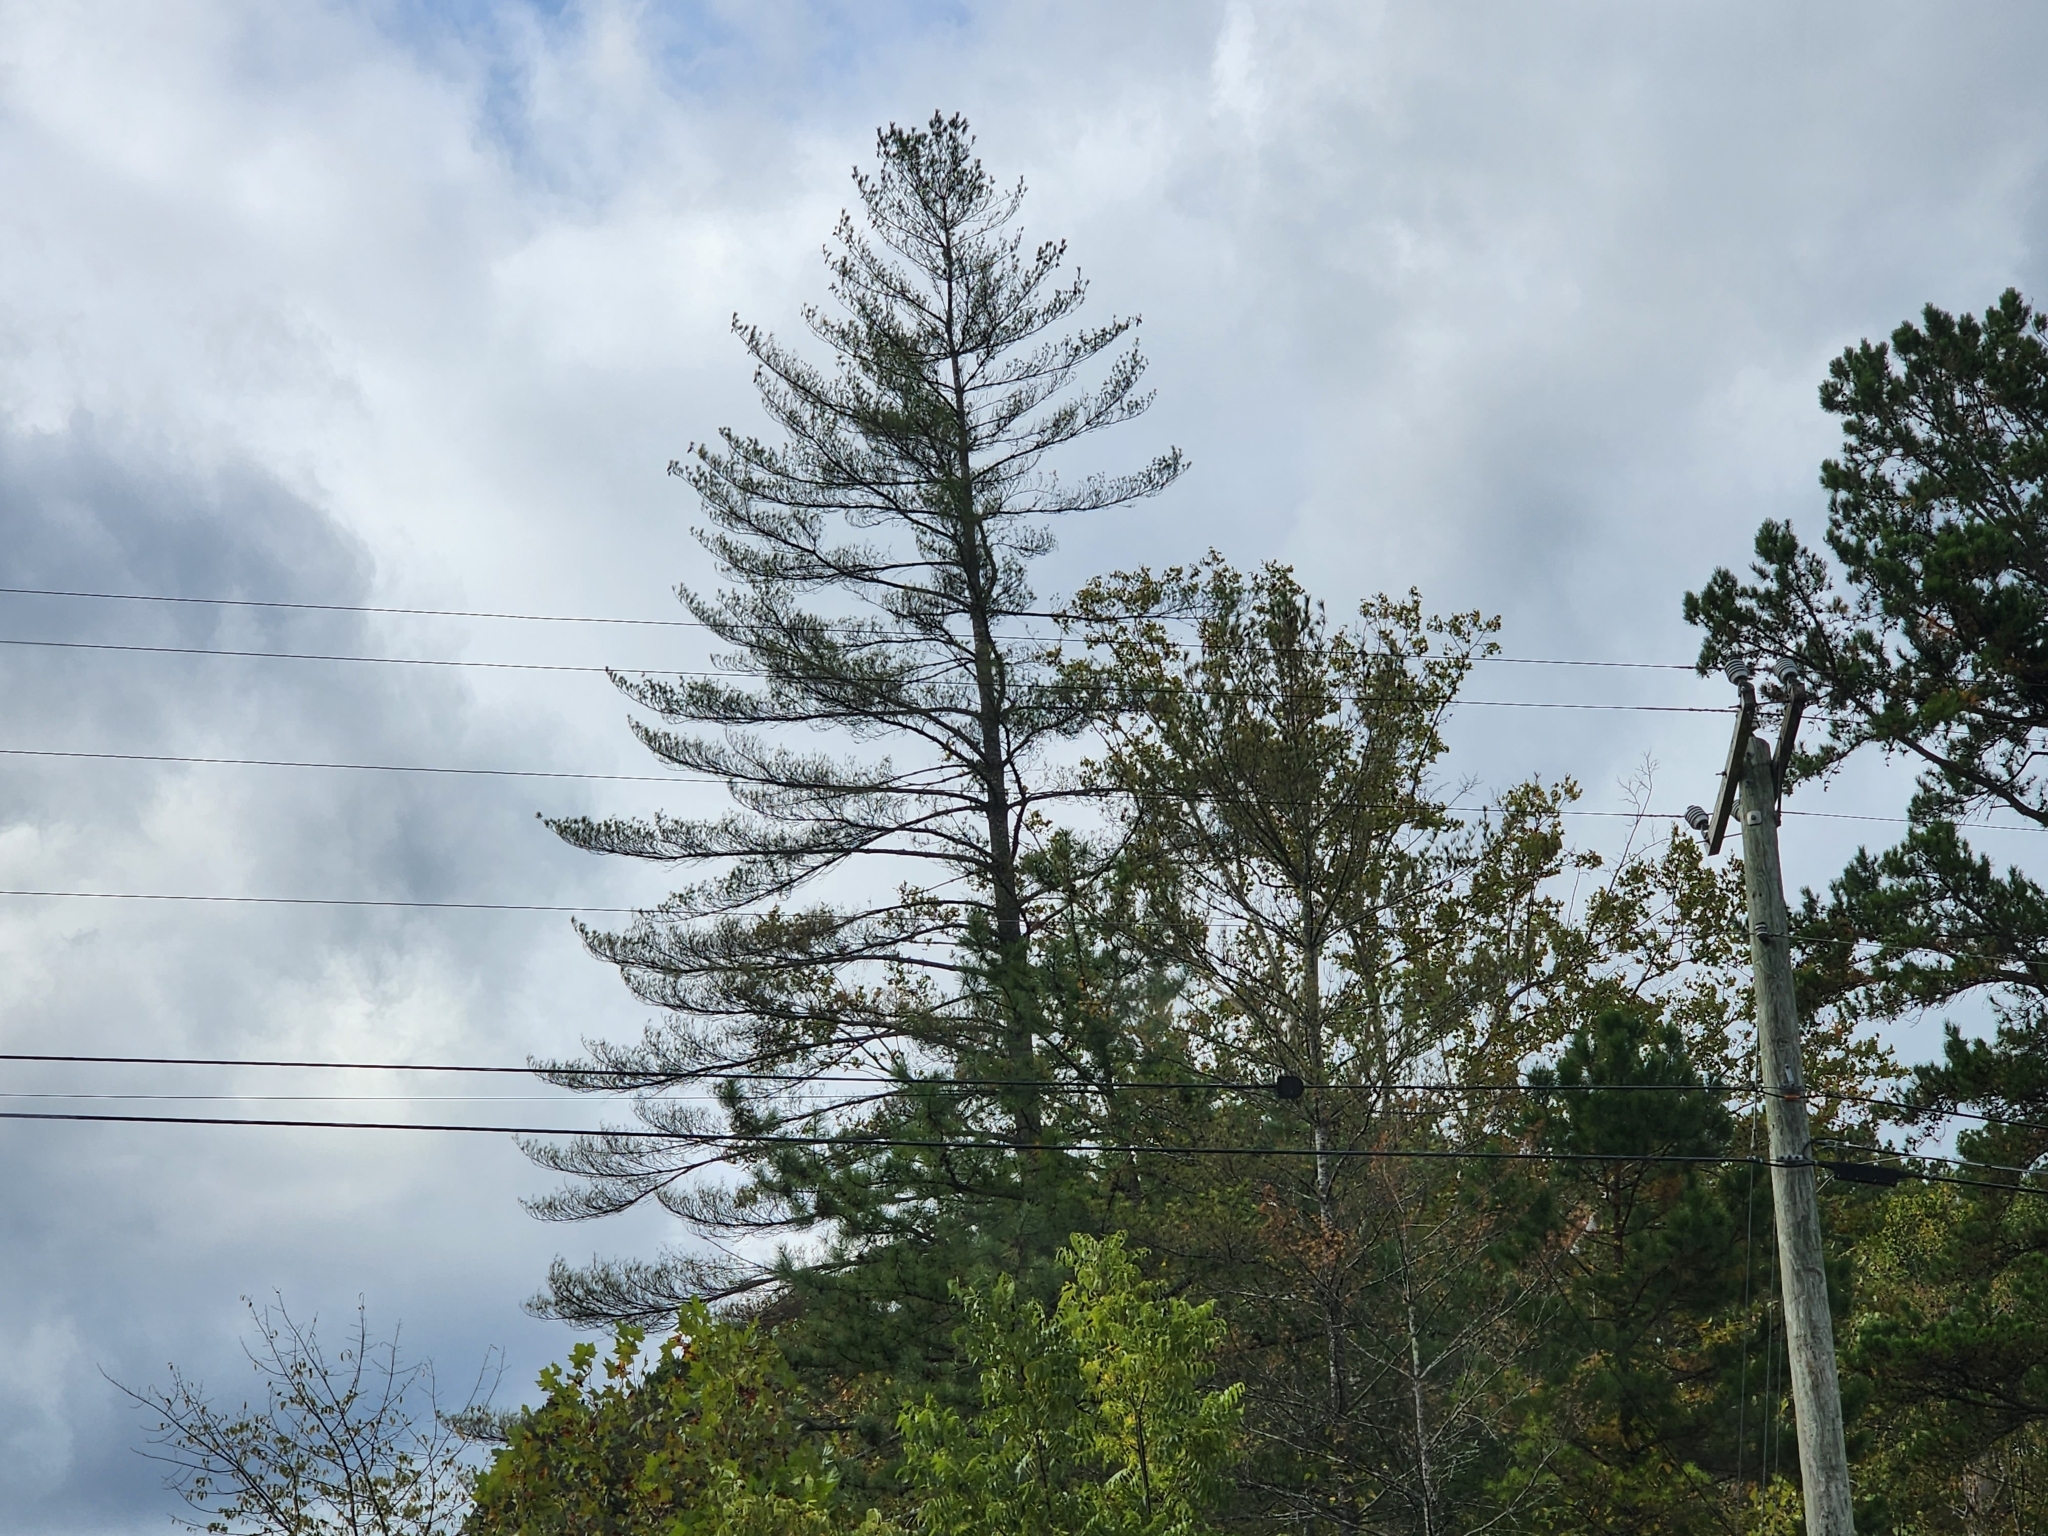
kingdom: Plantae
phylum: Tracheophyta
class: Pinopsida
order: Pinales
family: Pinaceae
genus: Pinus
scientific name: Pinus strobus
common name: Weymouth pine
